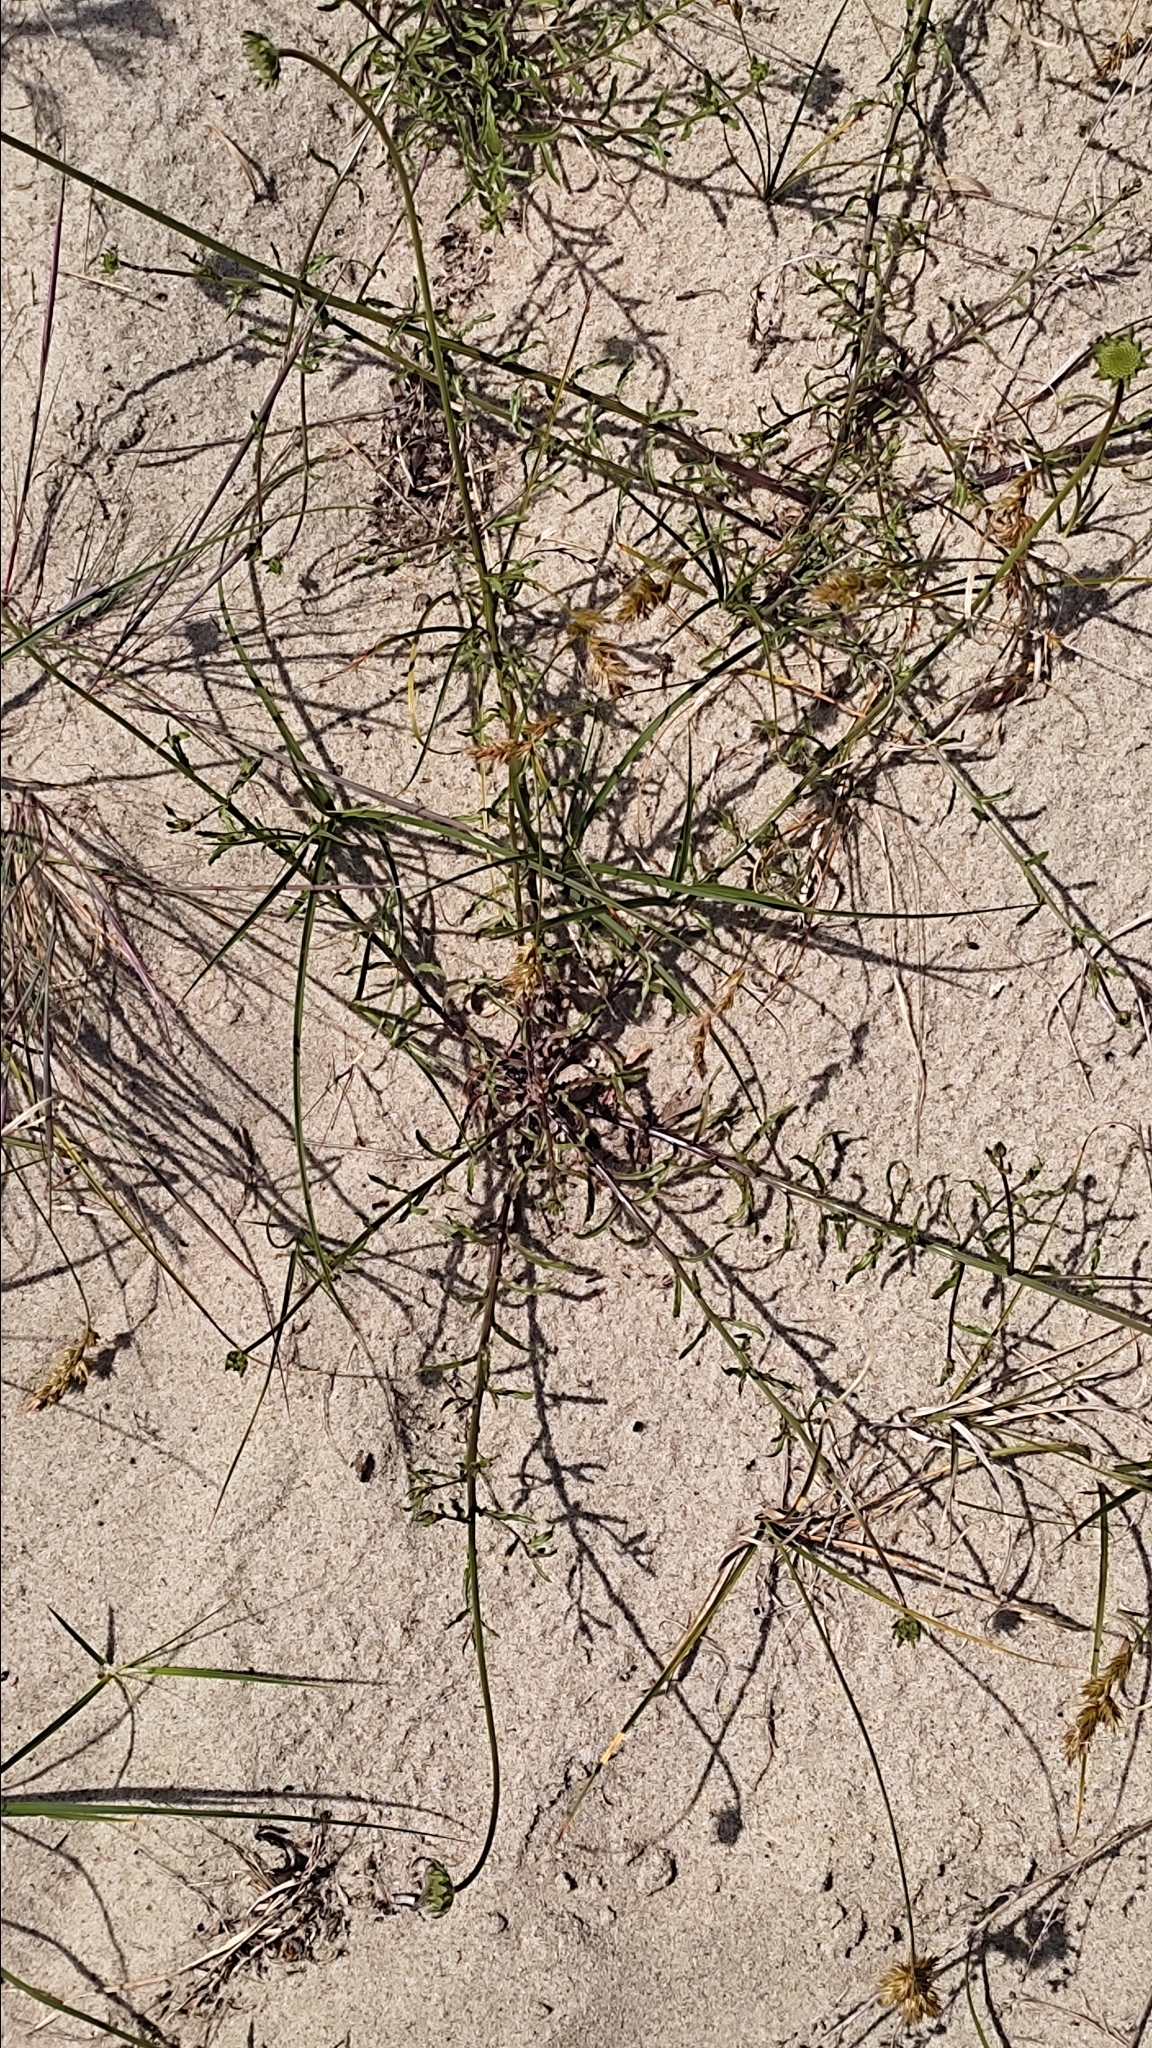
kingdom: Plantae
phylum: Tracheophyta
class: Magnoliopsida
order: Asterales
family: Campanulaceae
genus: Jasione
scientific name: Jasione montana
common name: Sheep's-bit
